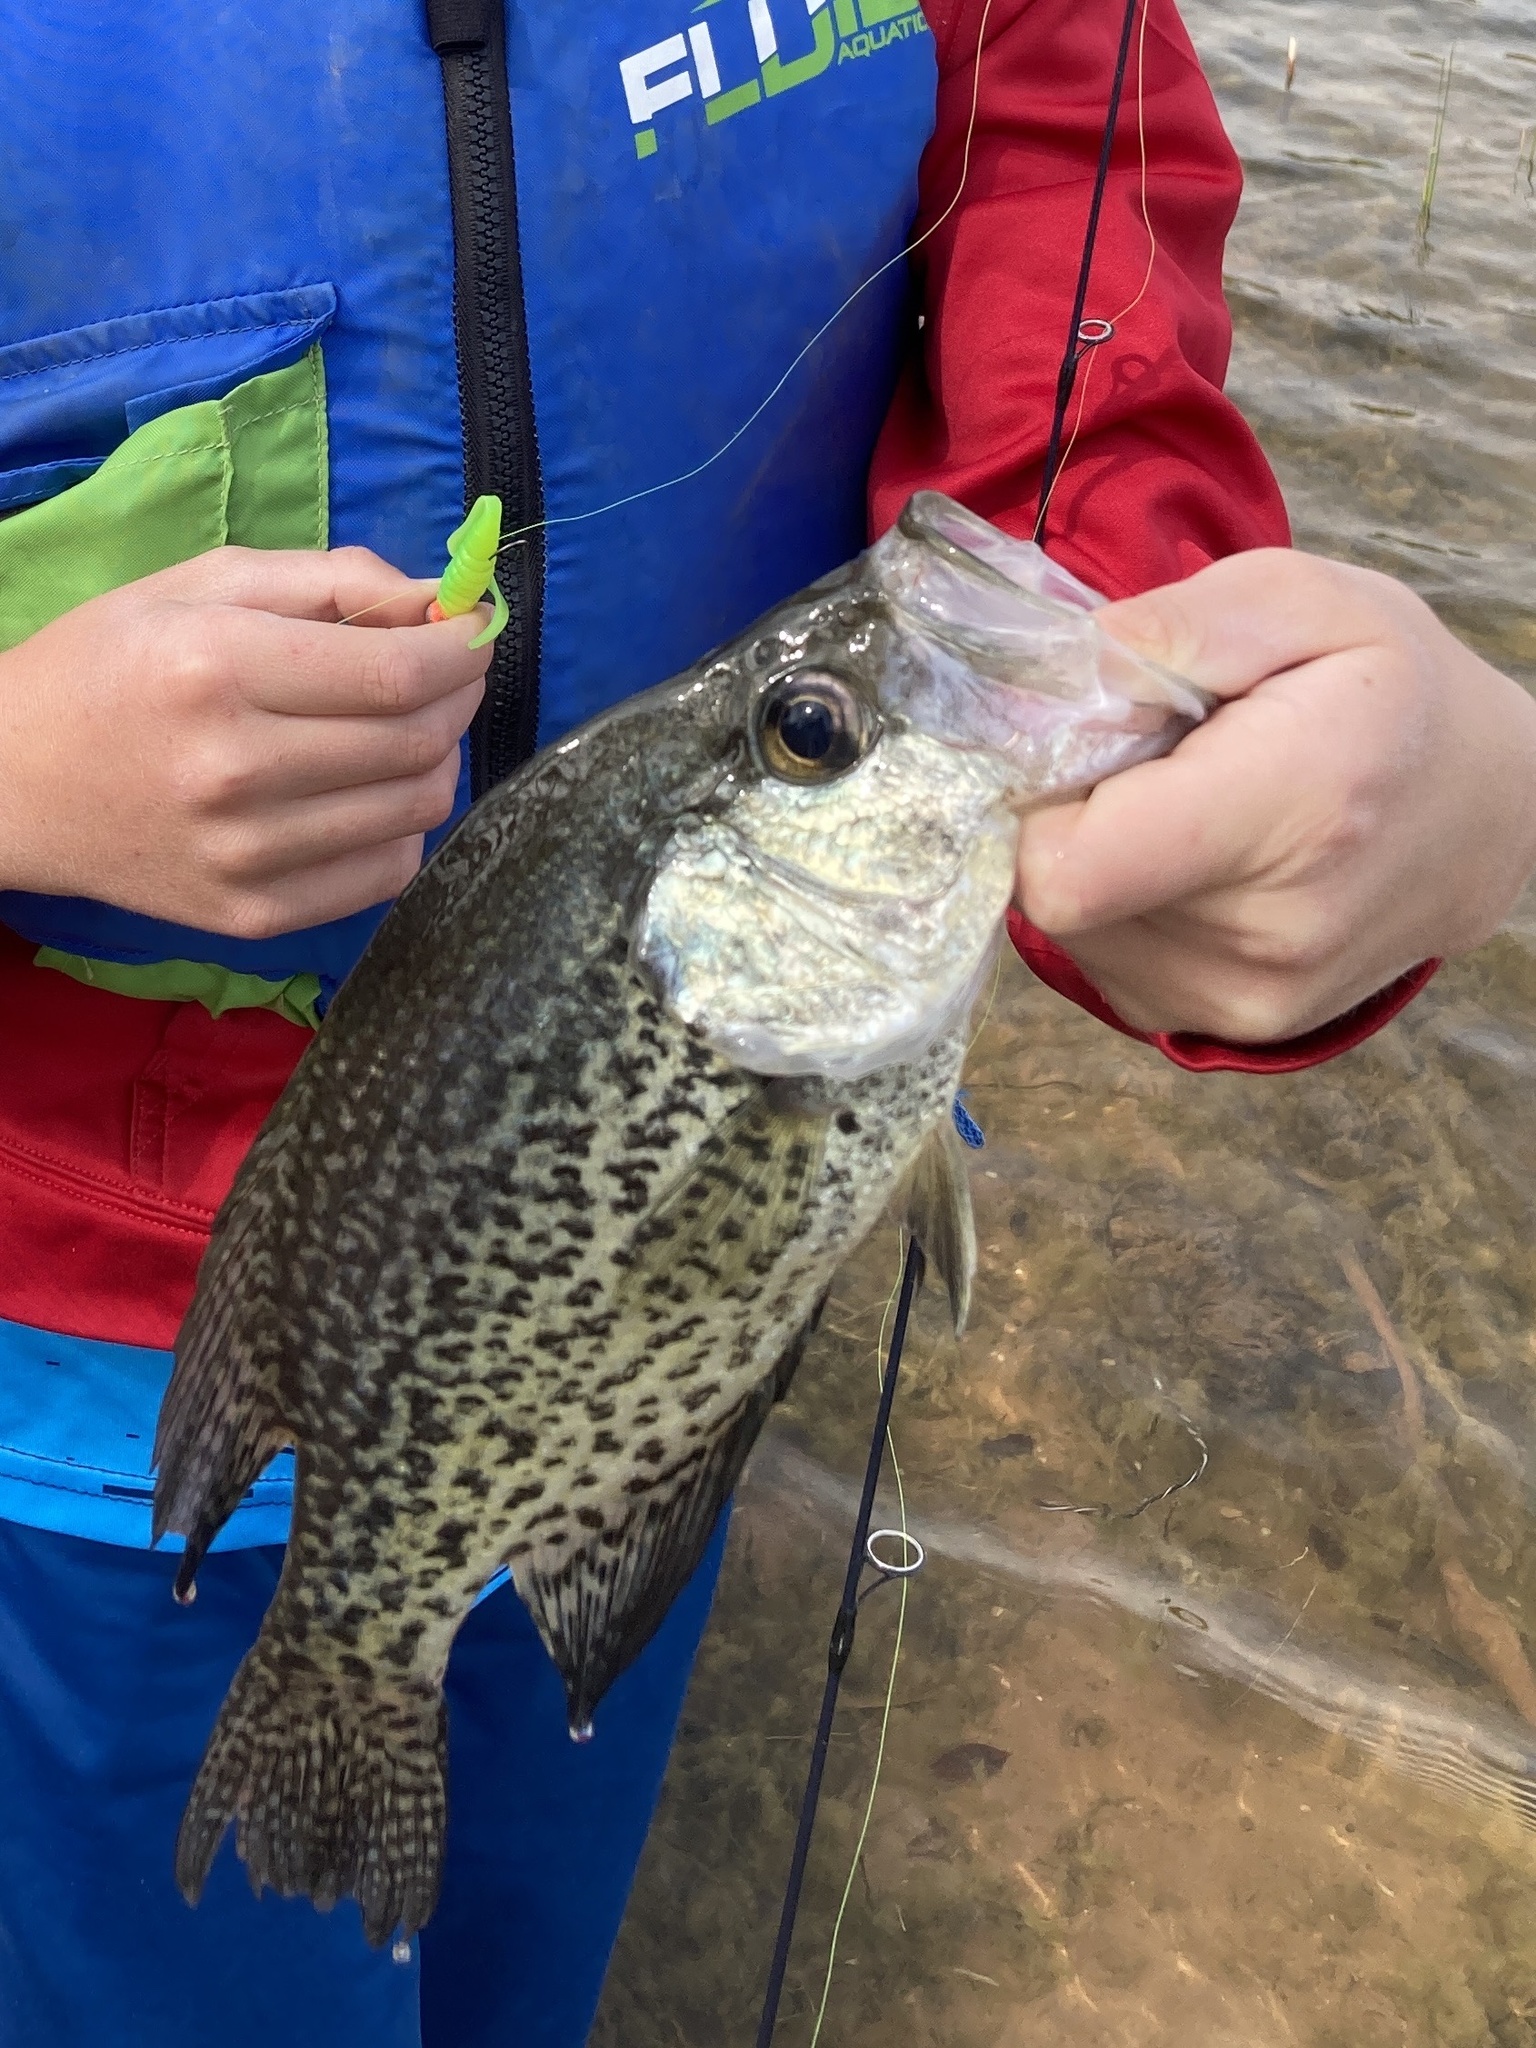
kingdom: Animalia
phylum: Chordata
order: Perciformes
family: Centrarchidae
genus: Pomoxis
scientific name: Pomoxis nigromaculatus
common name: Black crappie
